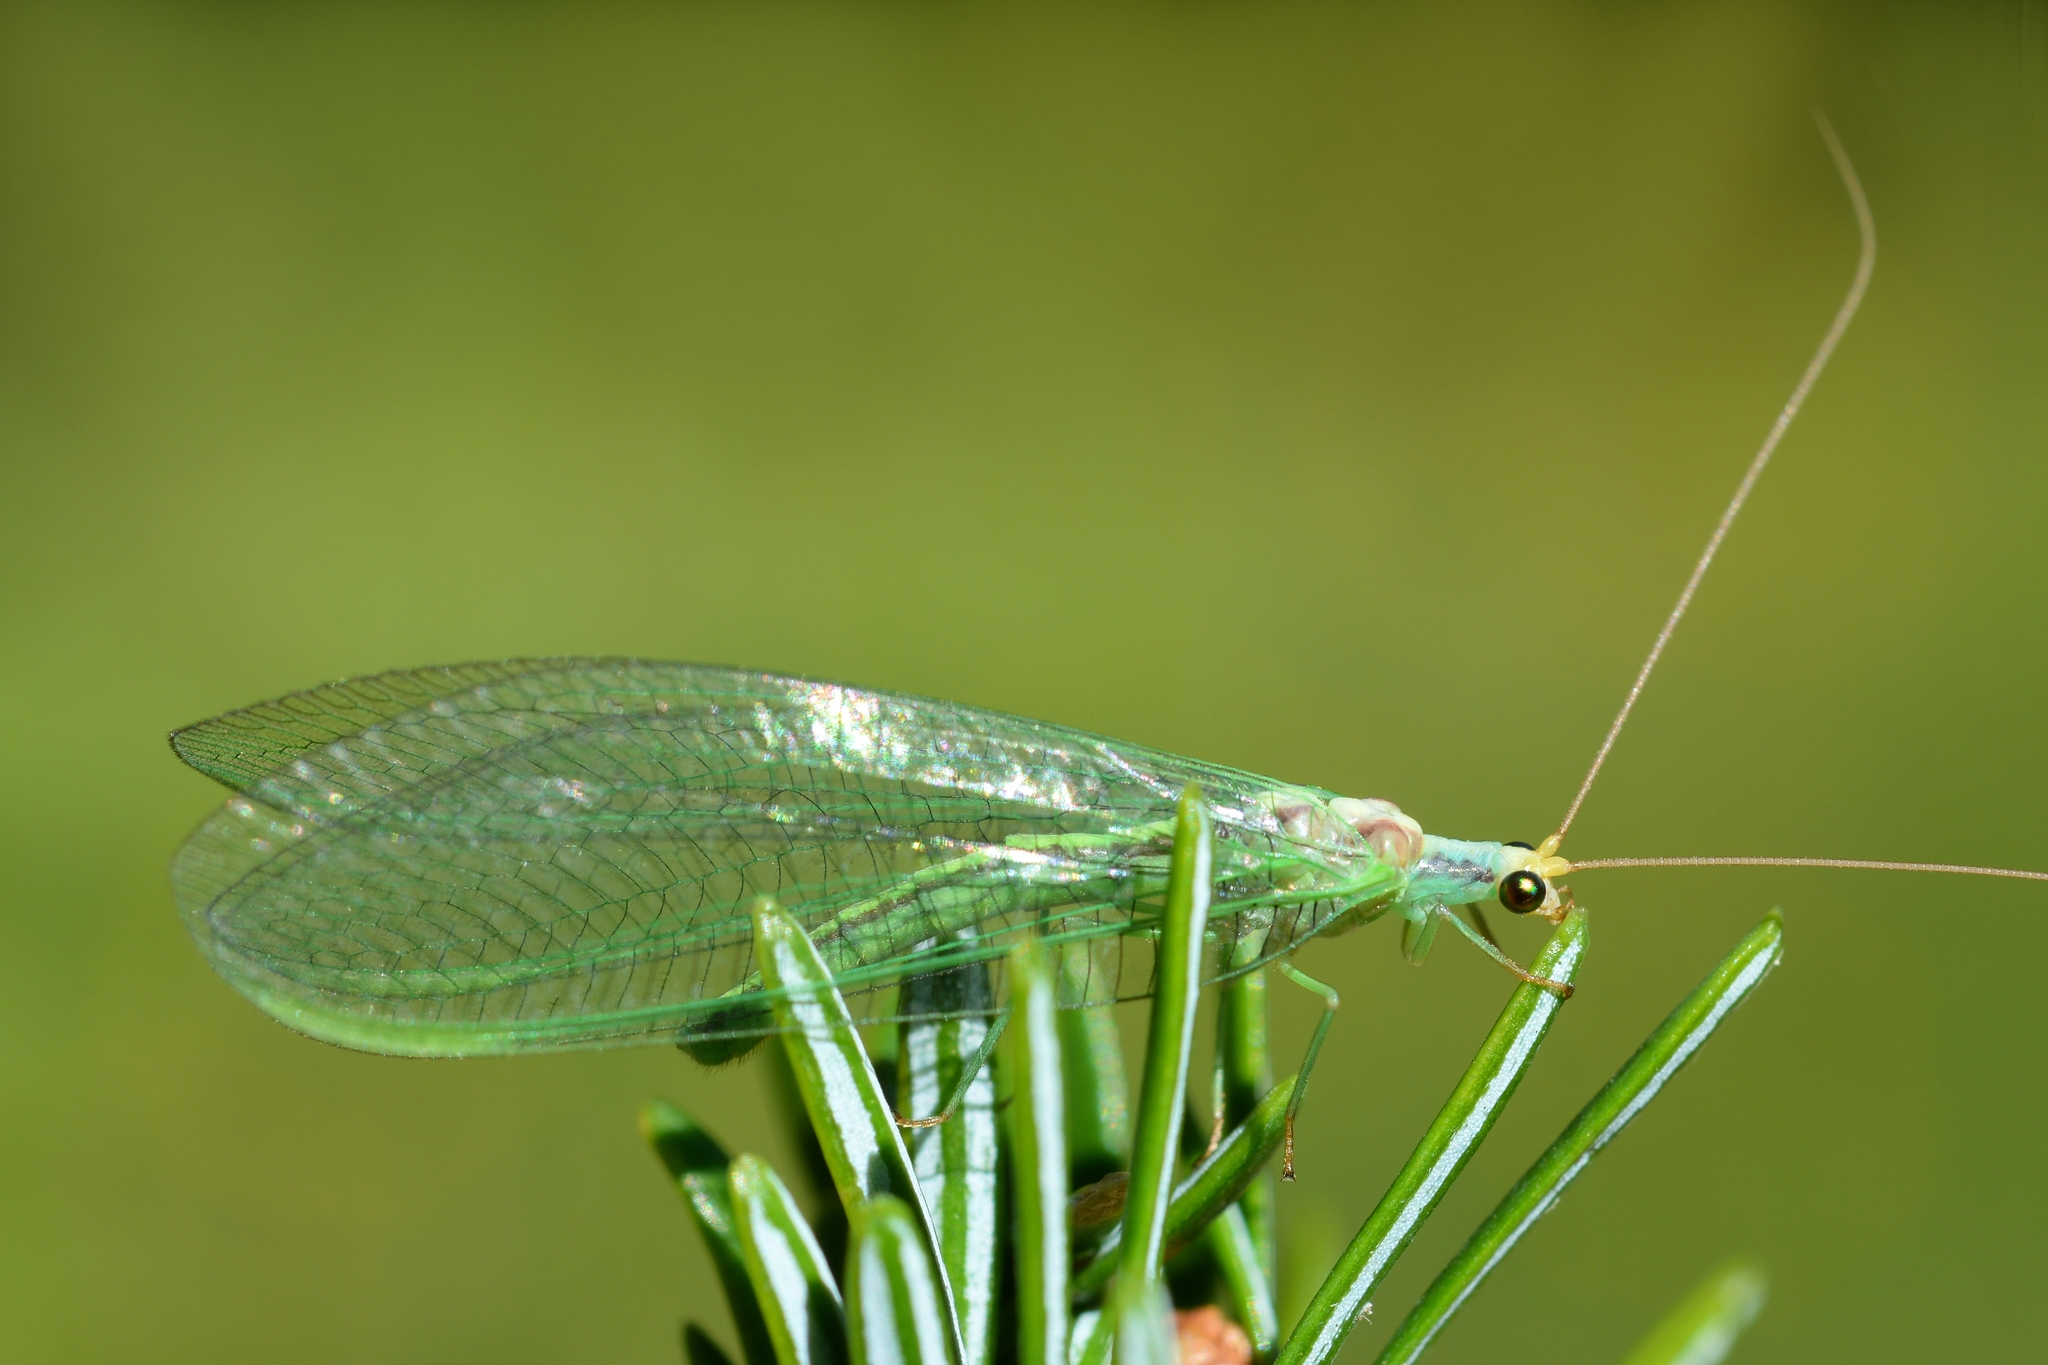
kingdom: Animalia
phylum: Arthropoda
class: Insecta
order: Neuroptera
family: Chrysopidae
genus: Nineta
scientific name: Nineta pallida
